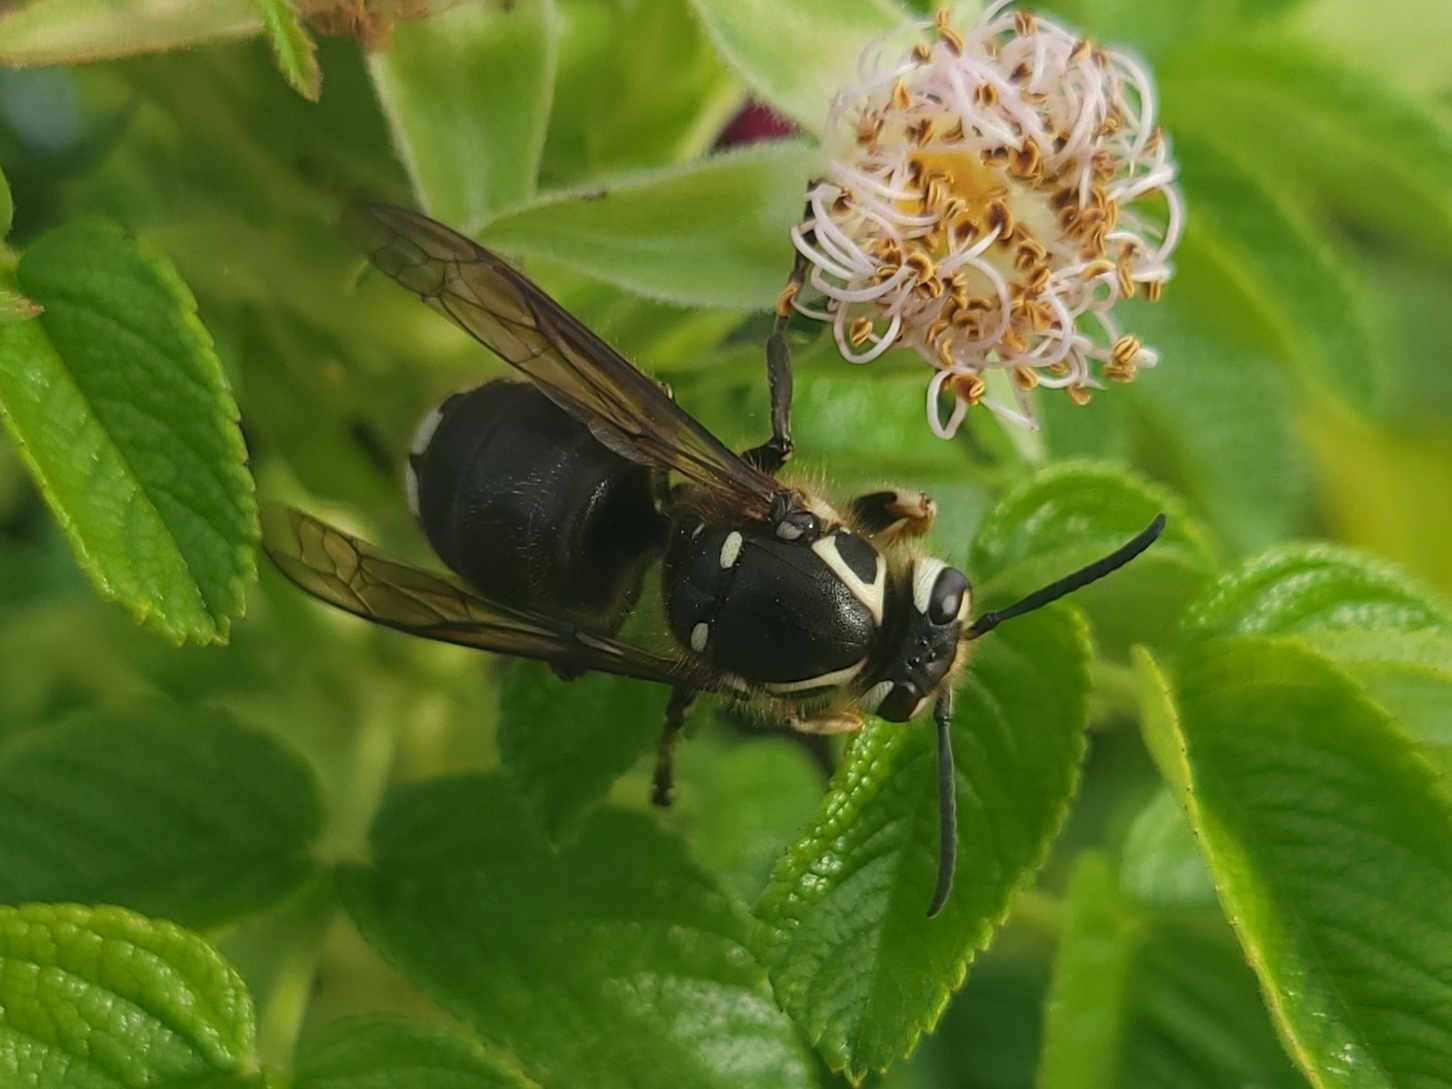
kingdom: Animalia
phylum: Arthropoda
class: Insecta
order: Hymenoptera
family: Vespidae
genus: Dolichovespula
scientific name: Dolichovespula maculata
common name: Bald-faced hornet
